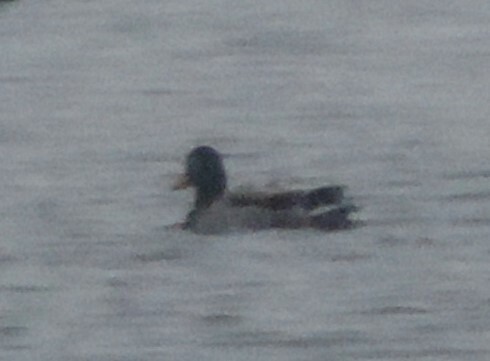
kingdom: Animalia
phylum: Chordata
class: Aves
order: Anseriformes
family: Anatidae
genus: Anas
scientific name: Anas platyrhynchos
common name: Mallard
